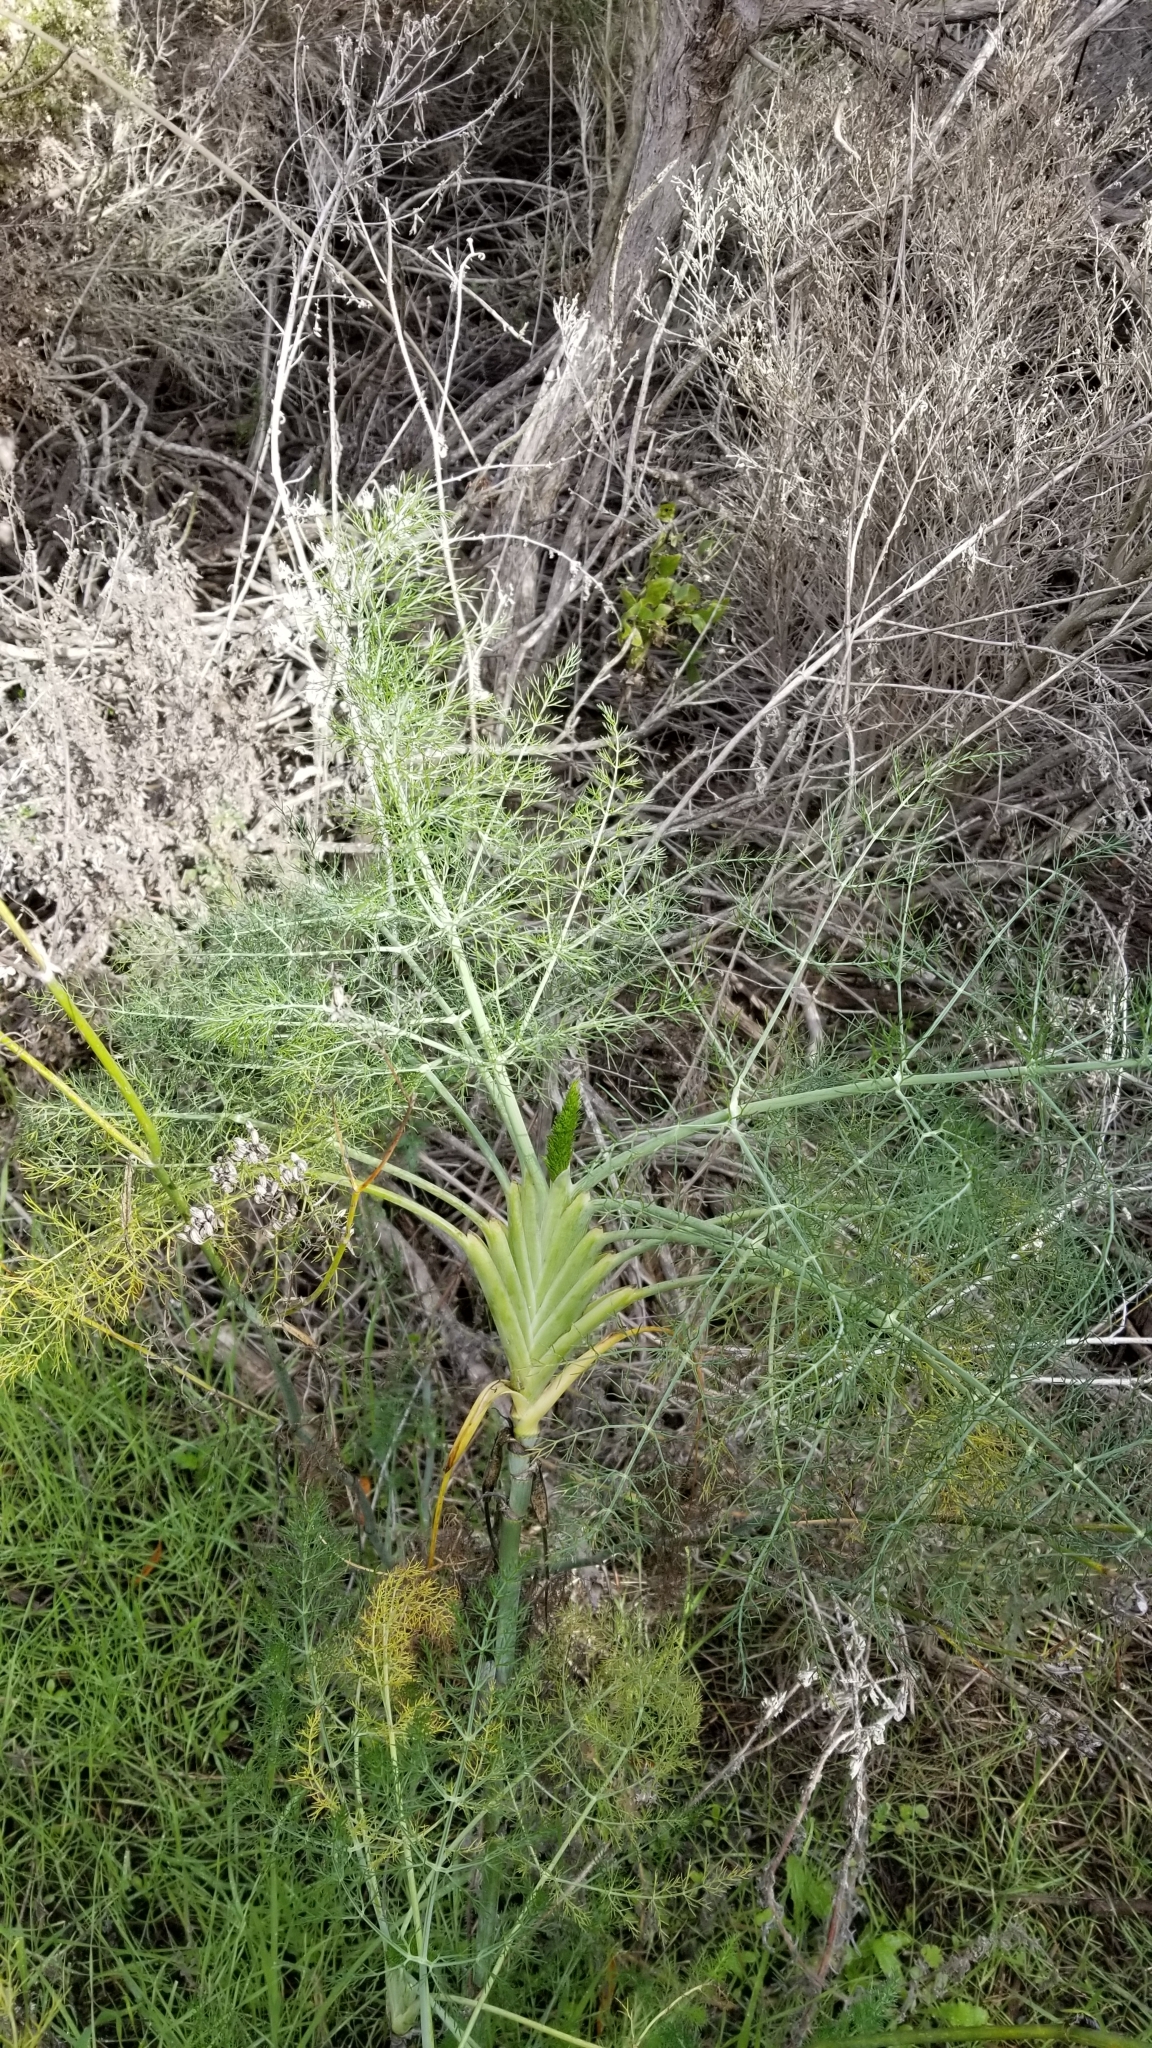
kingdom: Plantae
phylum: Tracheophyta
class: Magnoliopsida
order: Apiales
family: Apiaceae
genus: Foeniculum
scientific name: Foeniculum vulgare
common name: Fennel
